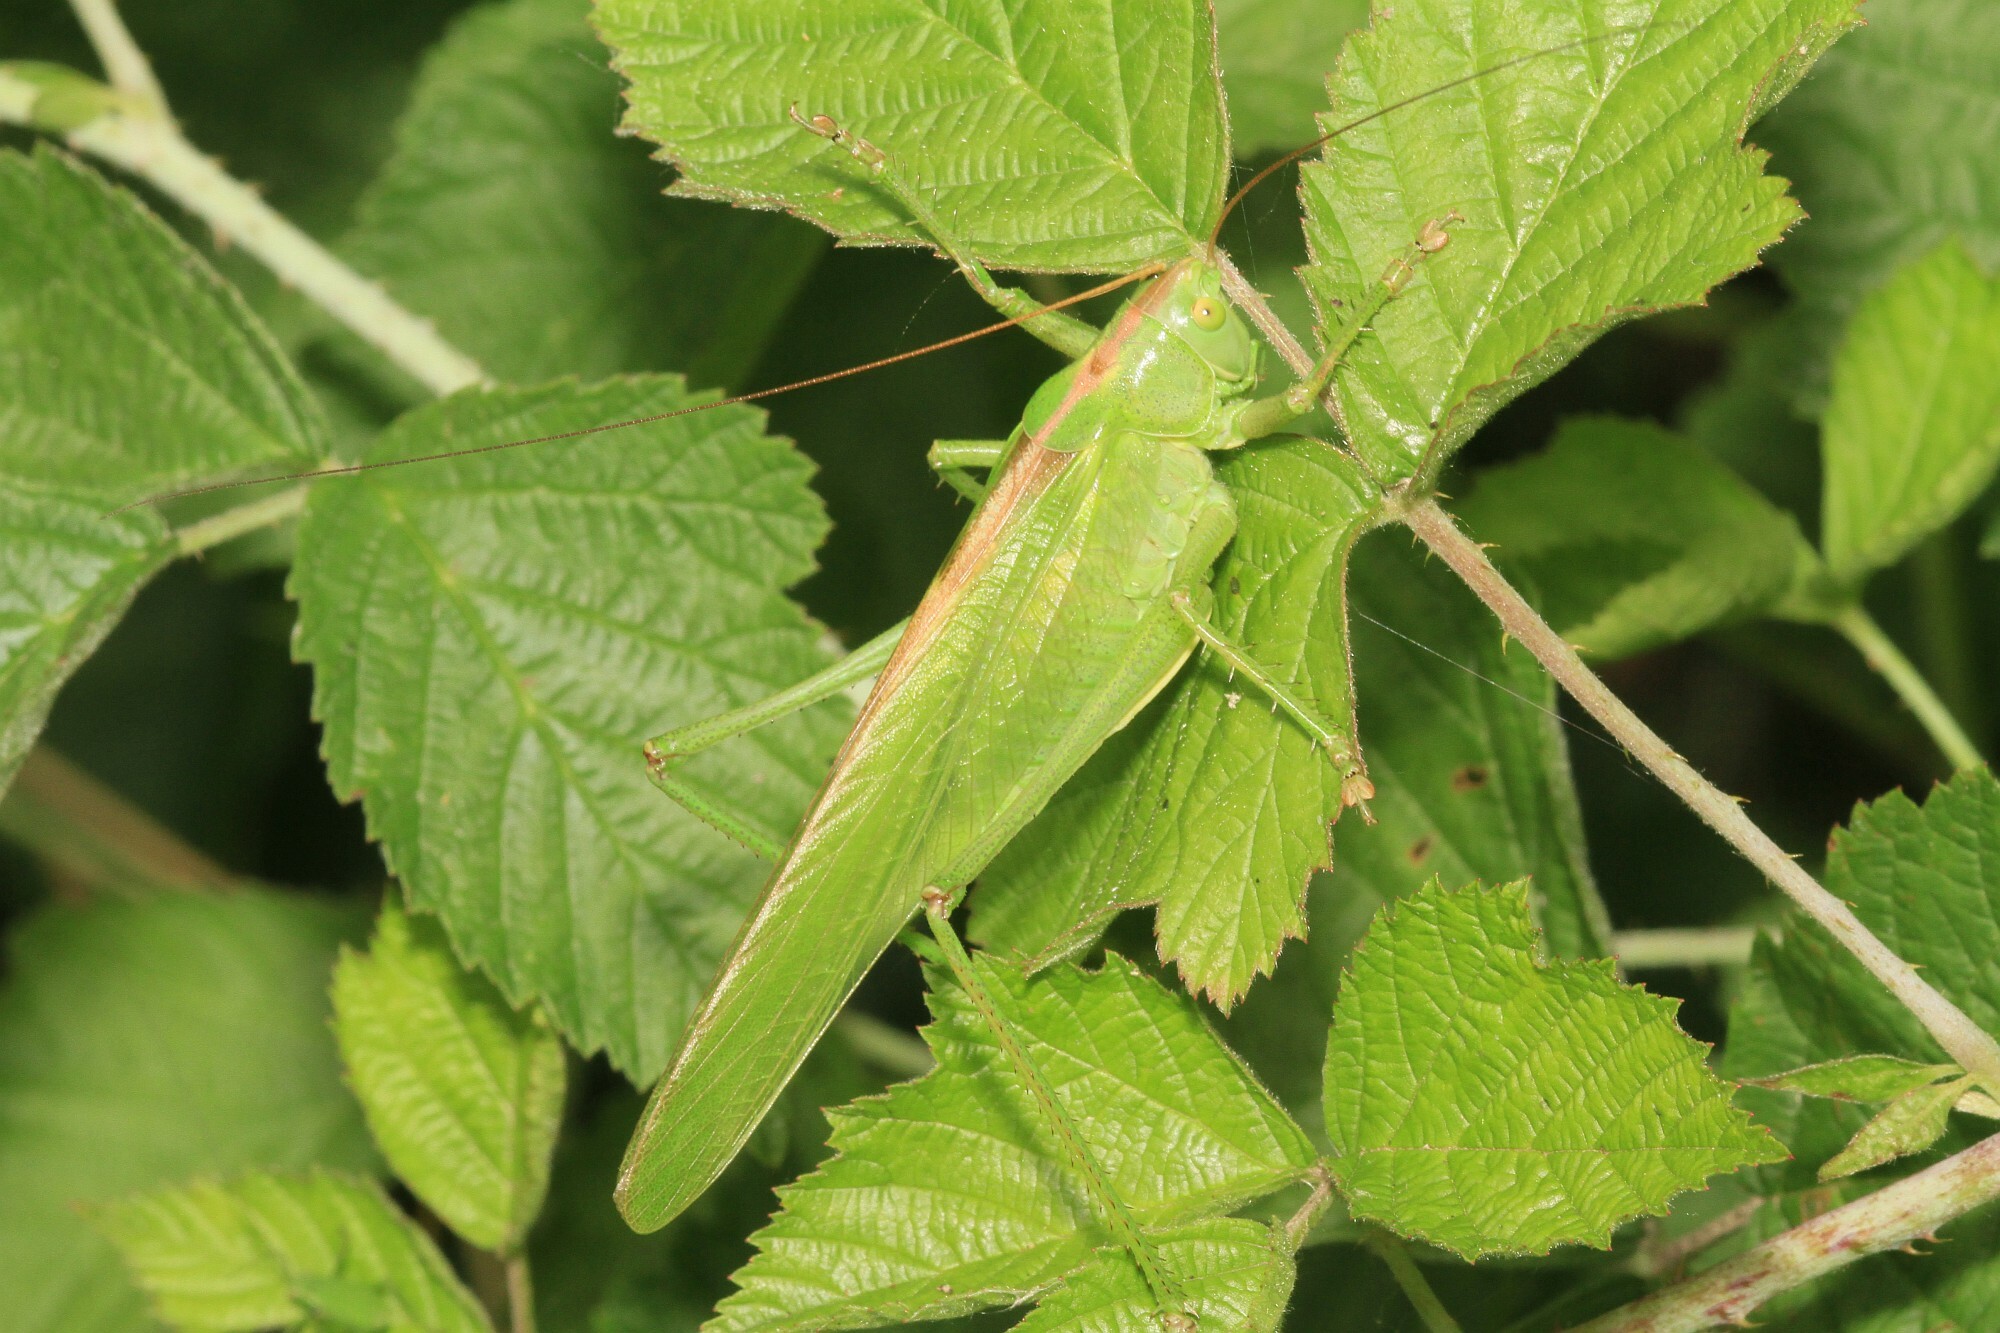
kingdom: Animalia
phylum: Arthropoda
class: Insecta
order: Orthoptera
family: Tettigoniidae
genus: Tettigonia
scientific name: Tettigonia viridissima
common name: Great green bush-cricket
